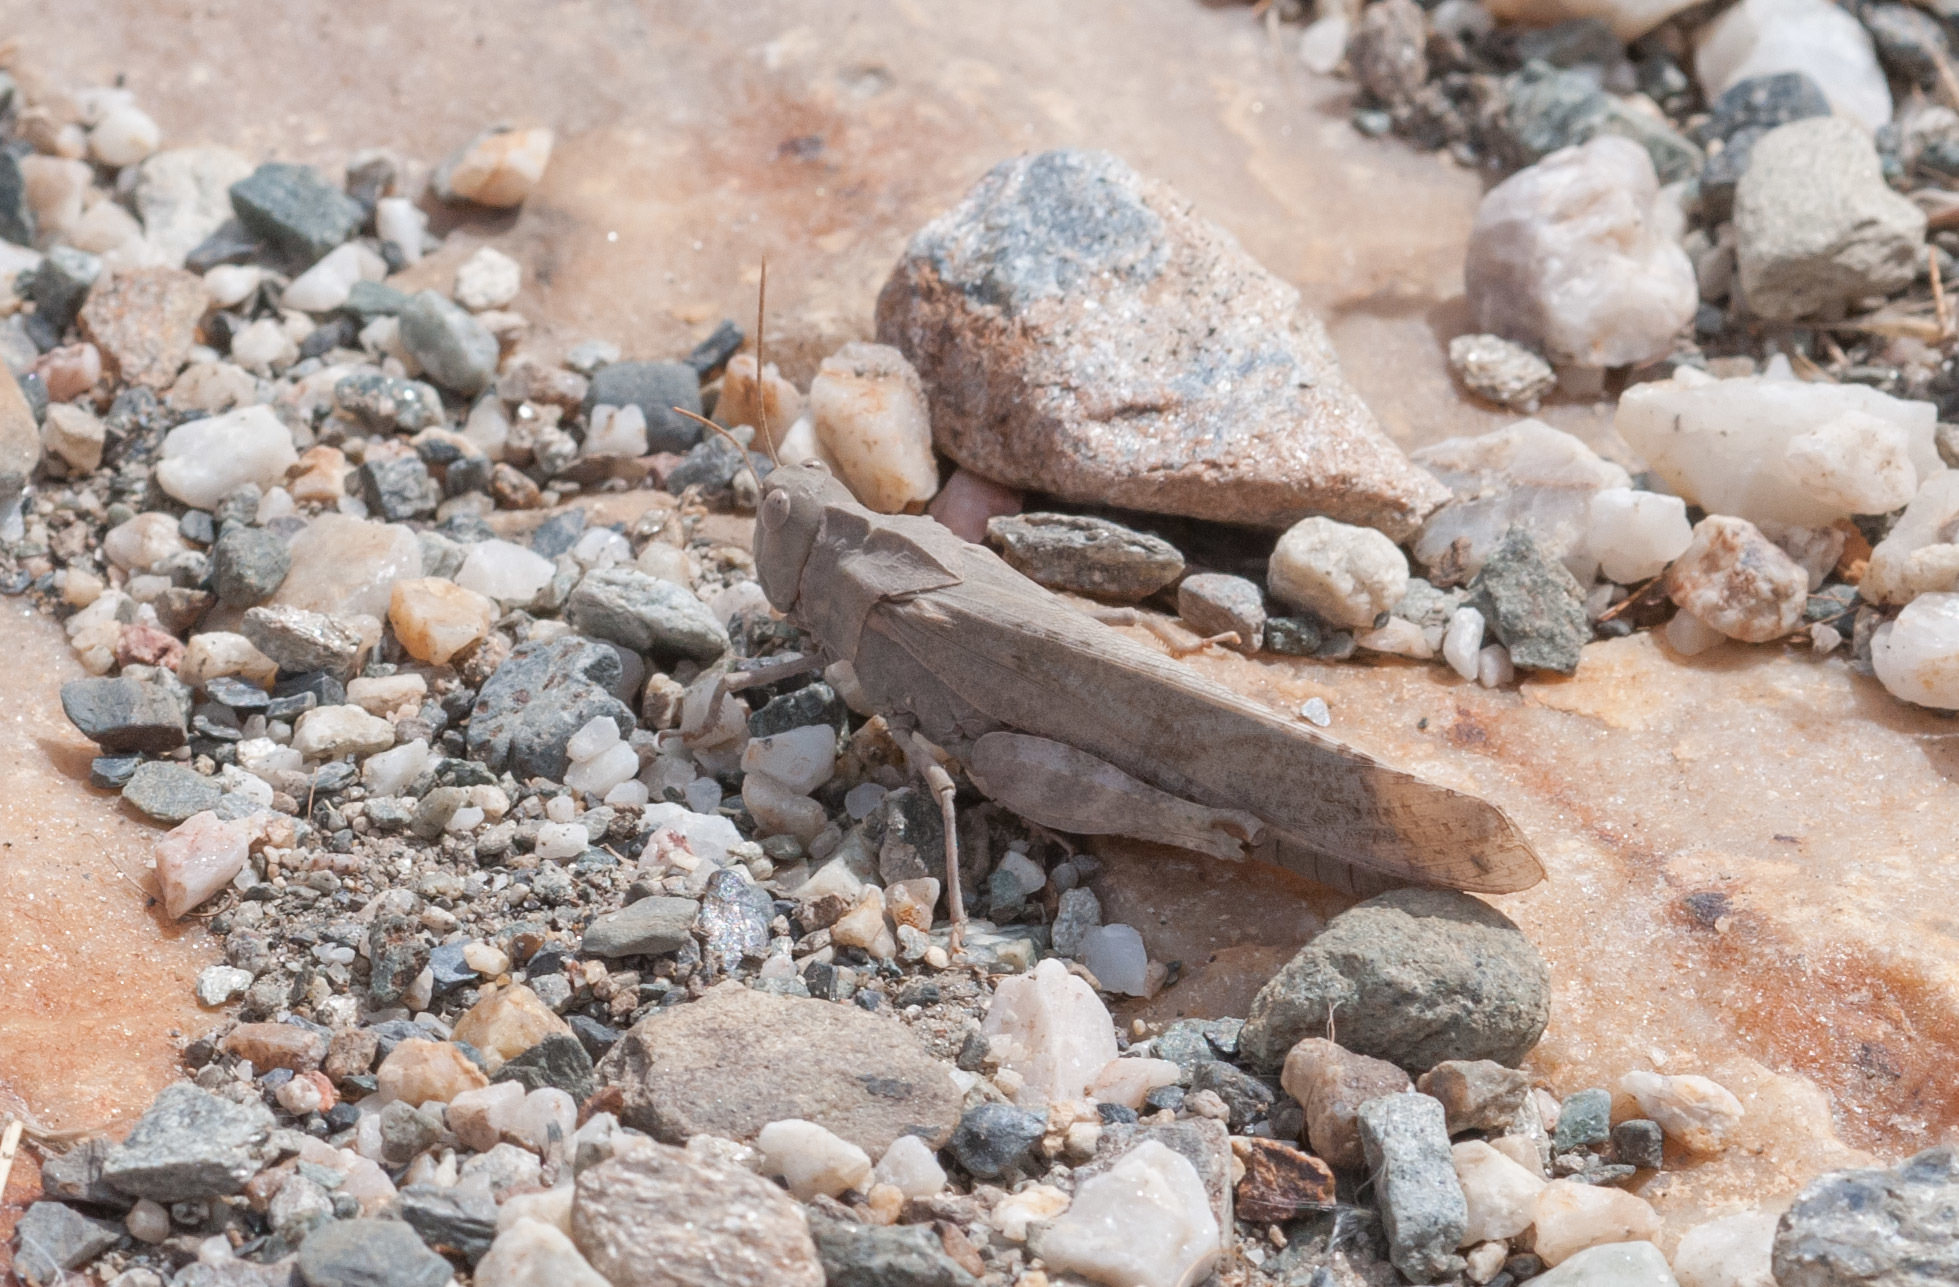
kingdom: Animalia
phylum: Arthropoda
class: Insecta
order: Orthoptera
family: Acrididae
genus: Dissosteira
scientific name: Dissosteira carolina
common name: Carolina grasshopper
